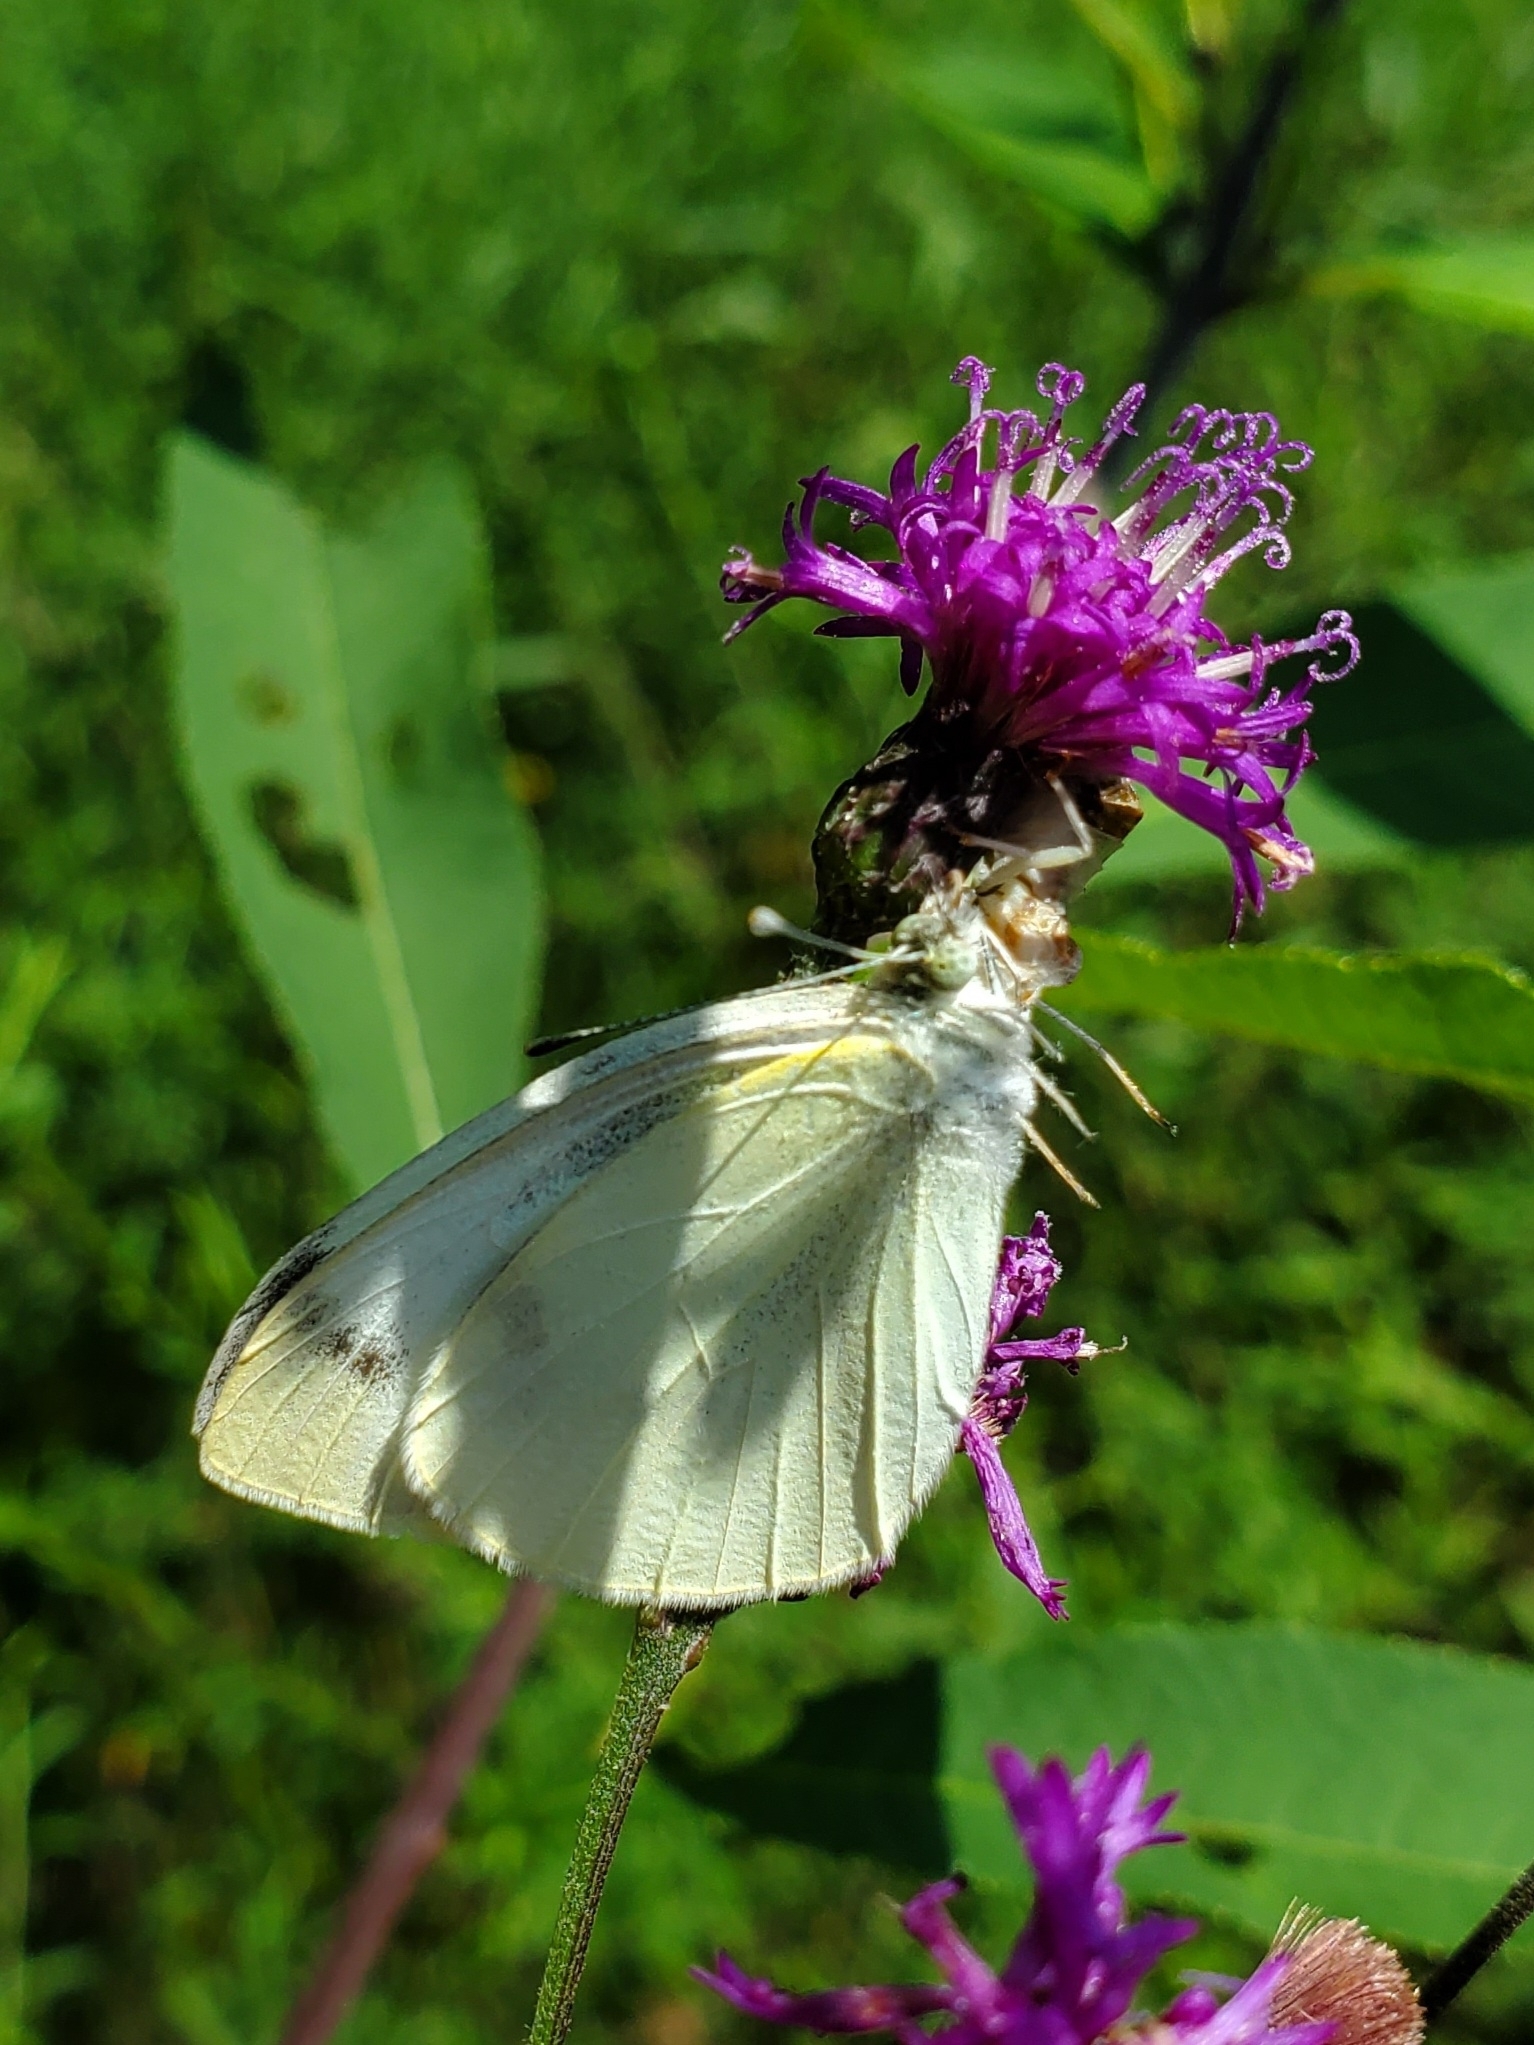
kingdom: Animalia
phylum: Arthropoda
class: Insecta
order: Lepidoptera
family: Pieridae
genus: Pieris
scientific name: Pieris rapae
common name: Small white
